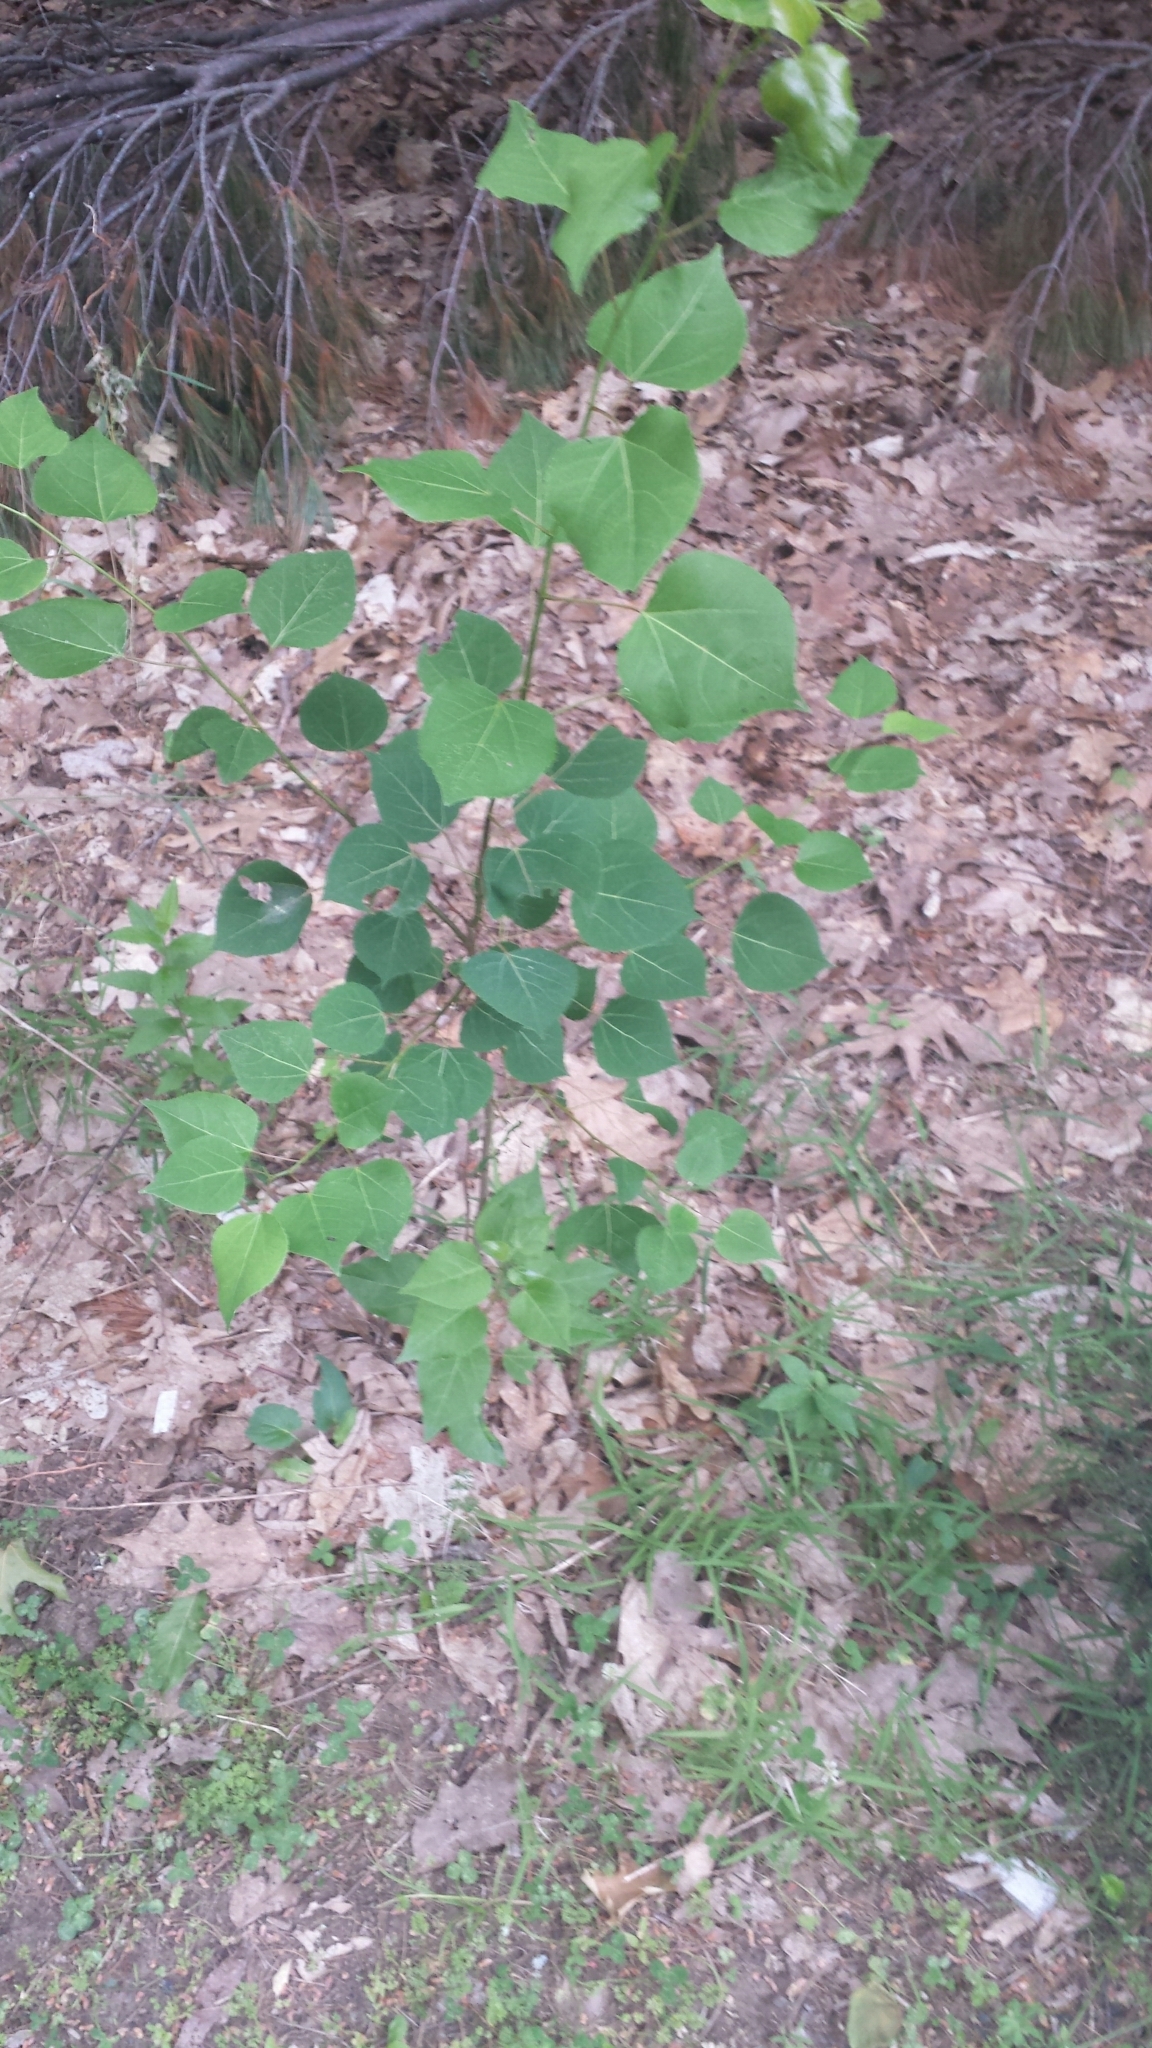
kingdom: Plantae
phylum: Tracheophyta
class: Magnoliopsida
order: Malpighiales
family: Salicaceae
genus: Populus
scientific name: Populus tremuloides
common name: Quaking aspen
